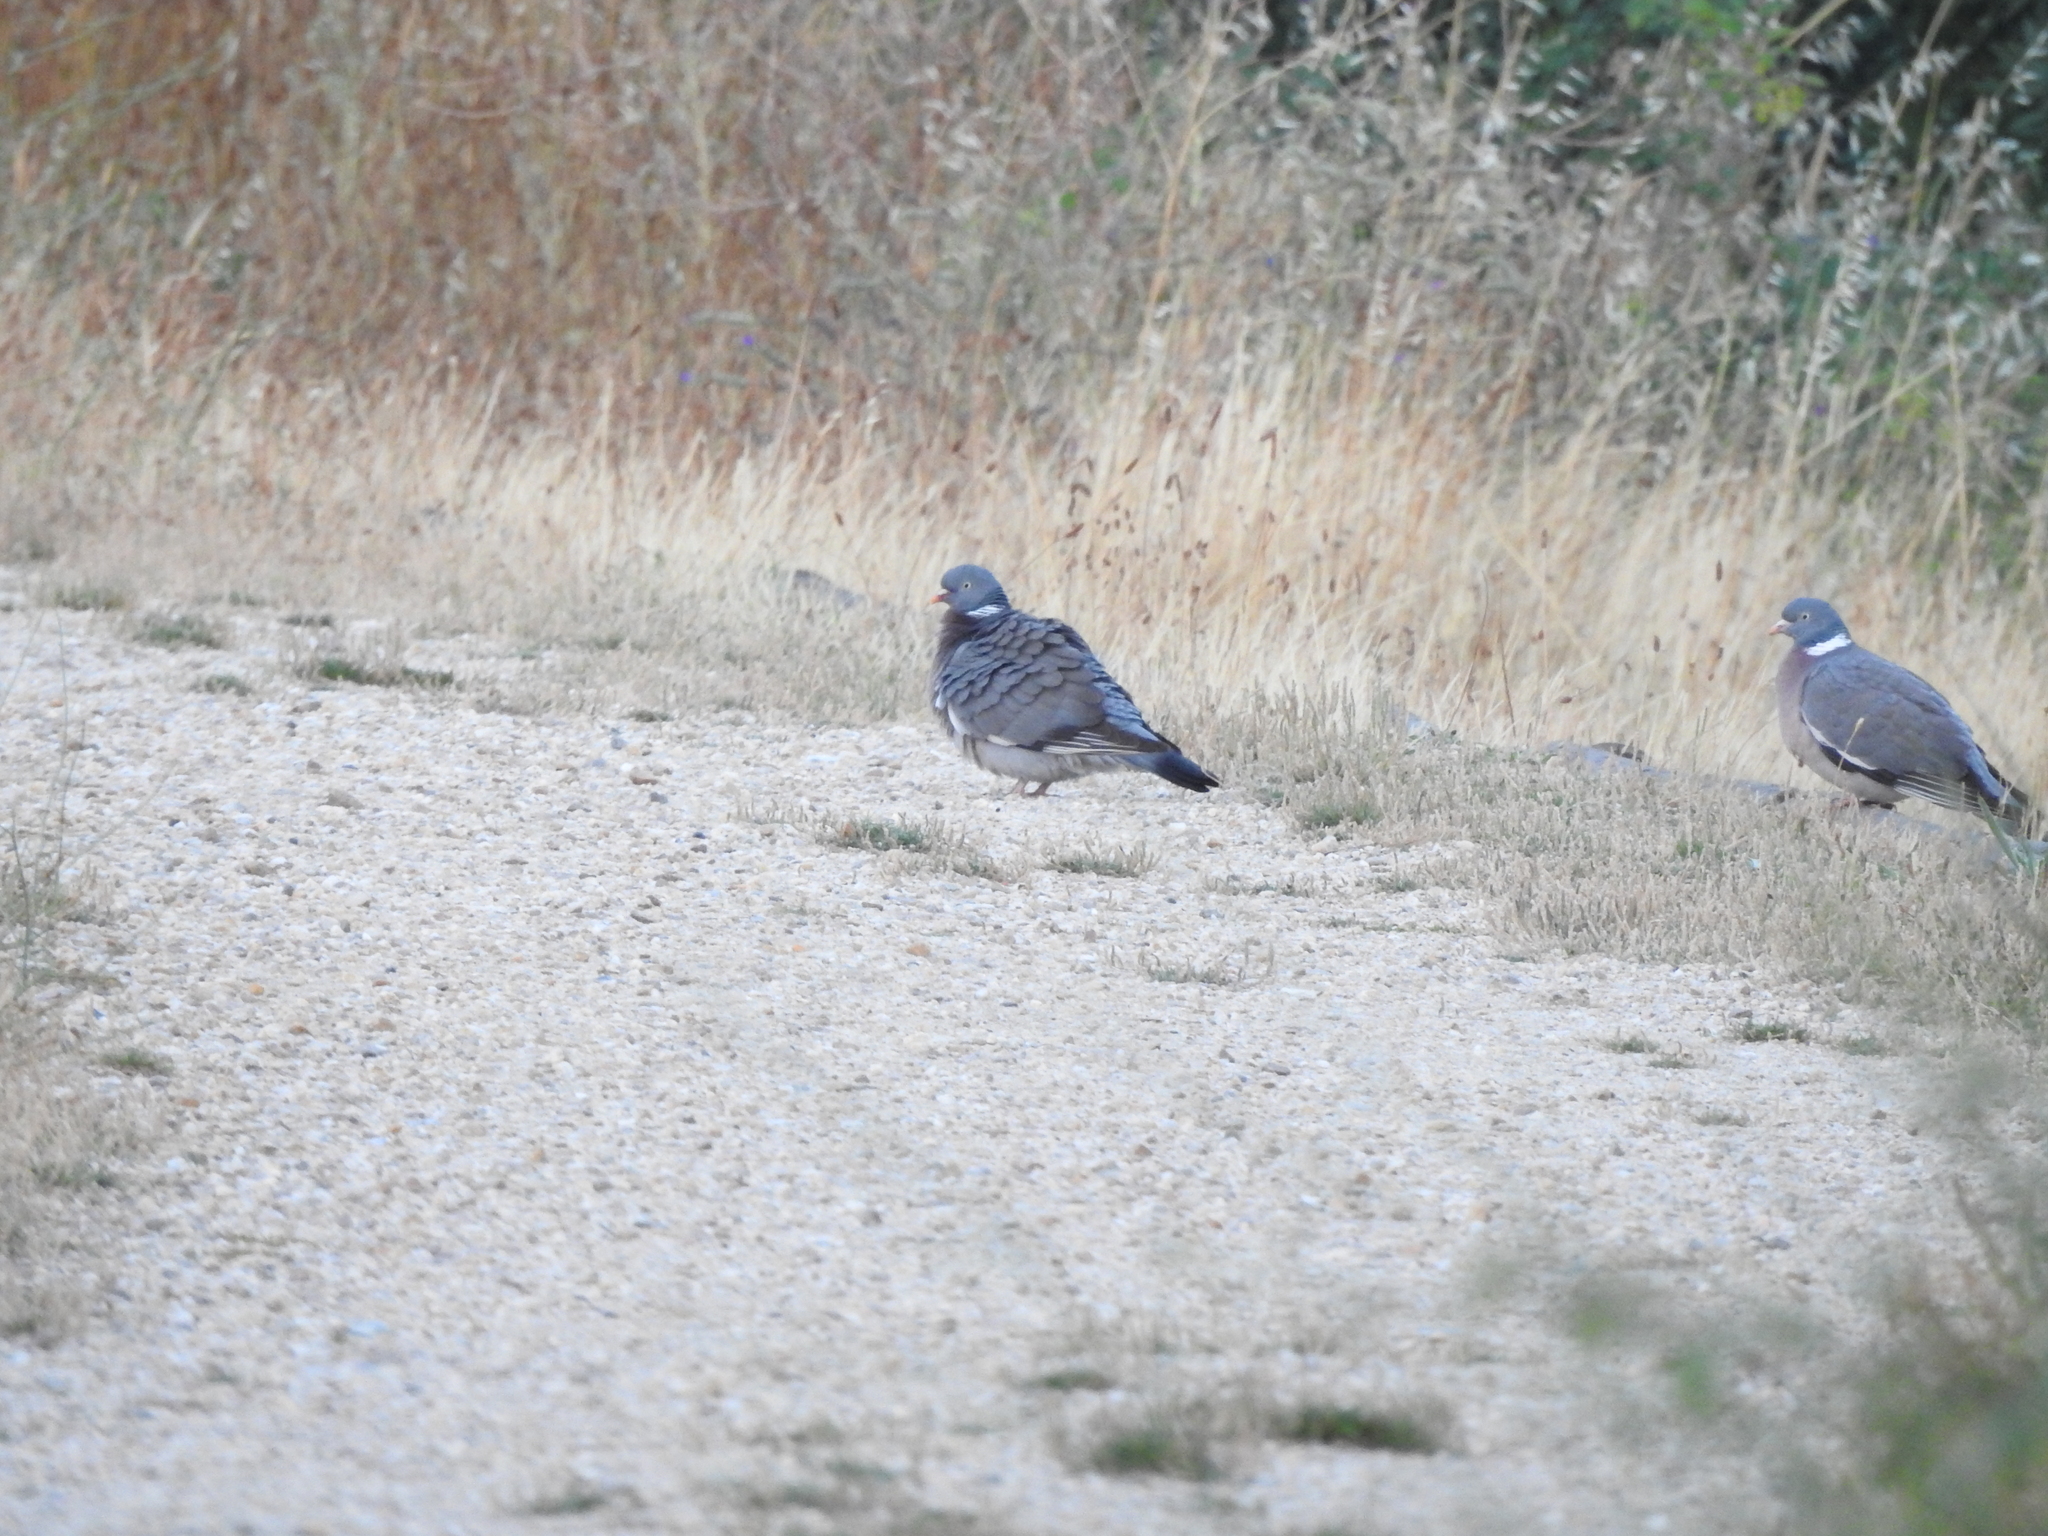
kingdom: Animalia
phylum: Chordata
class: Aves
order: Columbiformes
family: Columbidae
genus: Columba
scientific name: Columba palumbus
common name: Common wood pigeon
